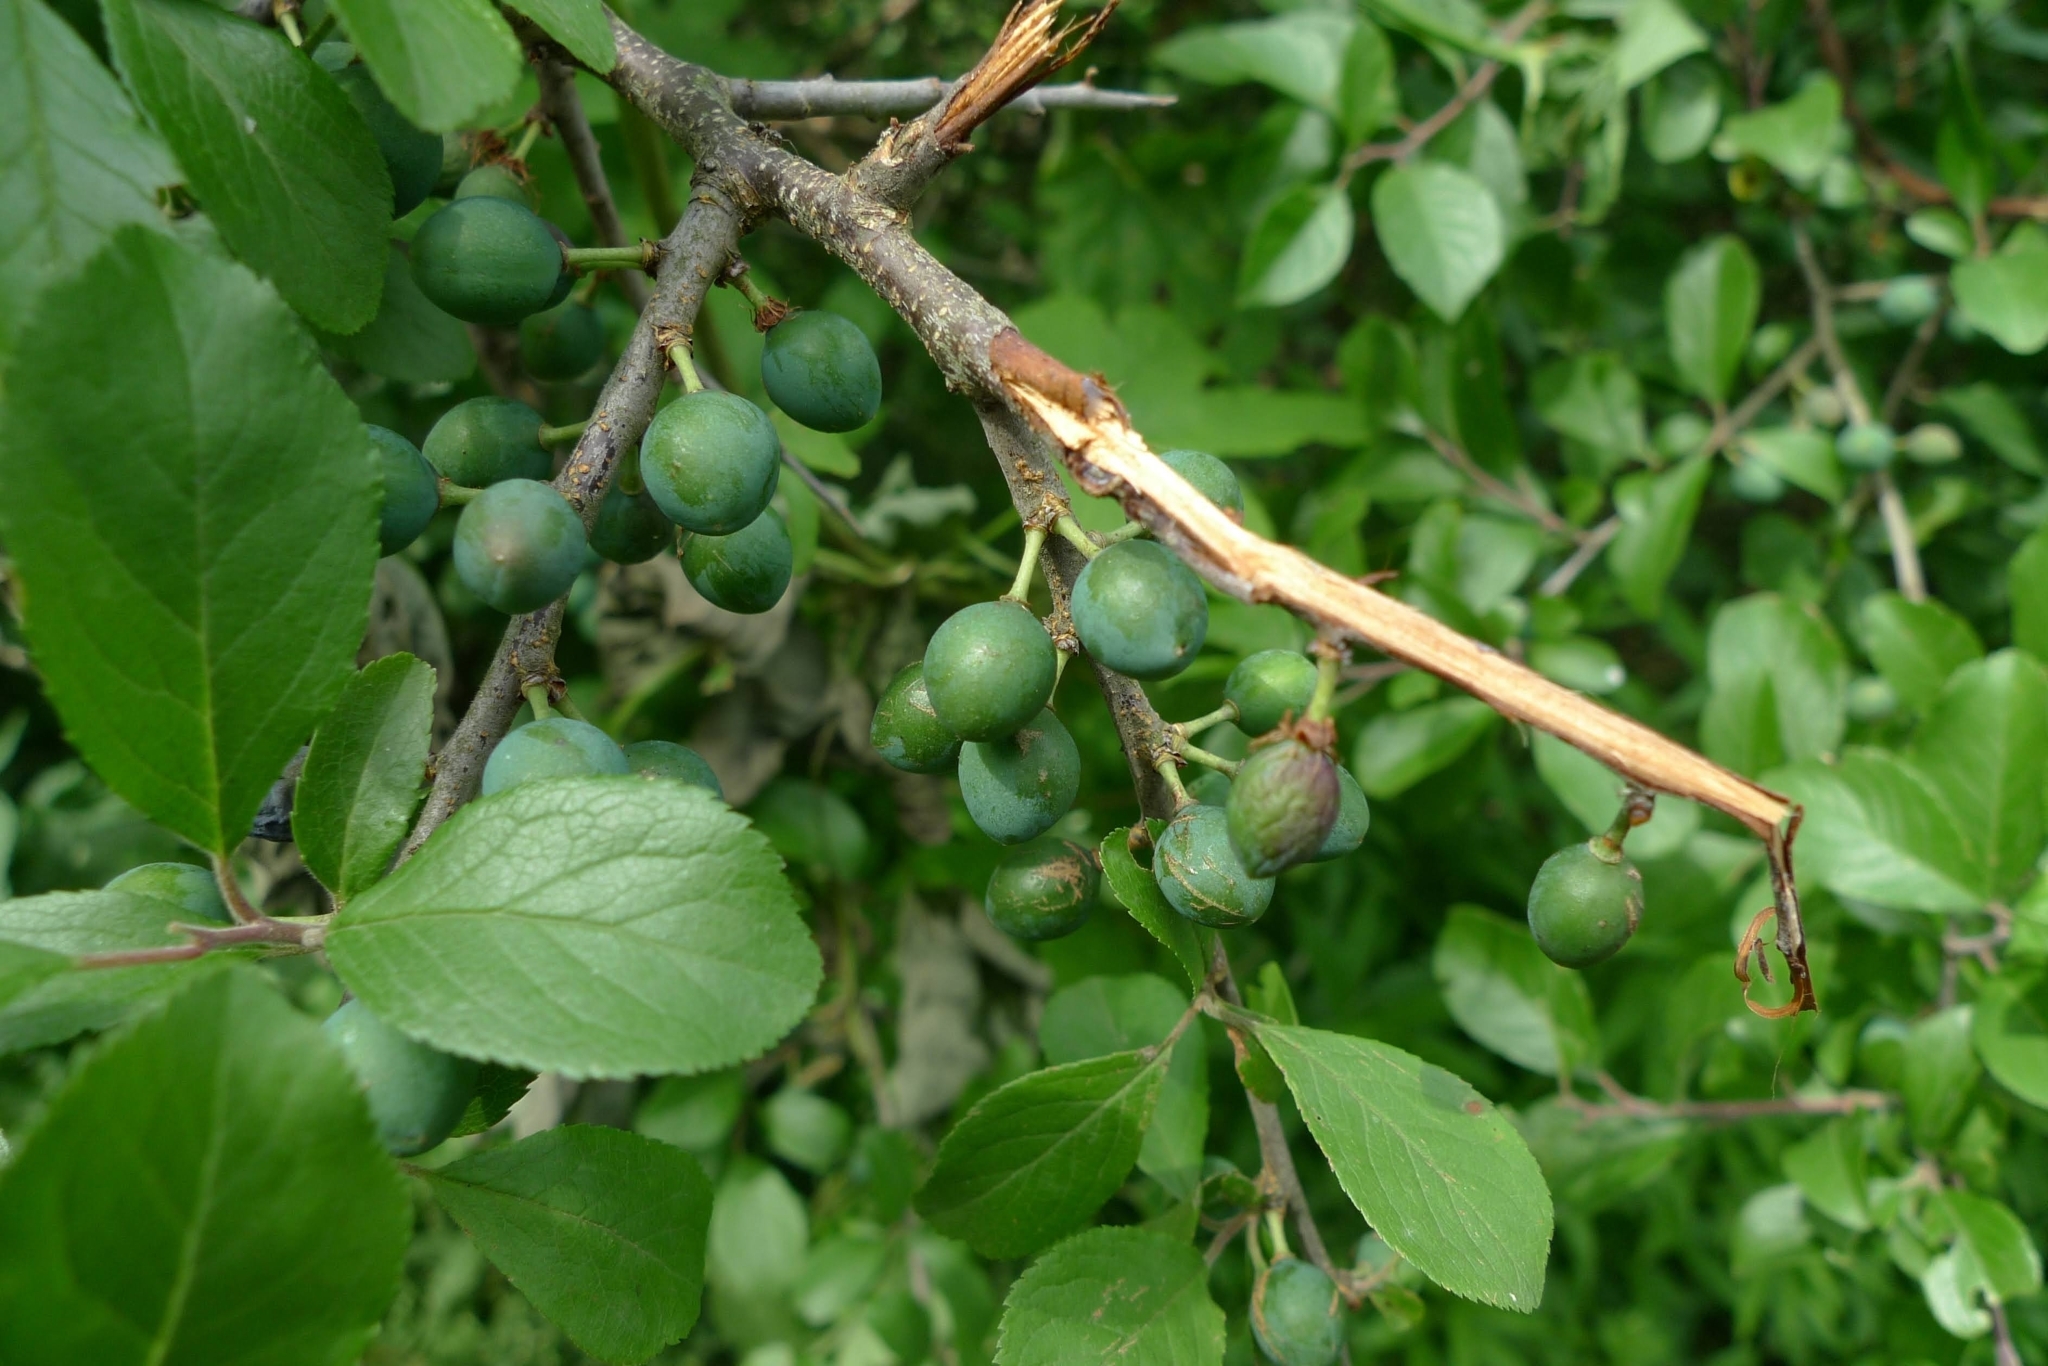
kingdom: Plantae
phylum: Tracheophyta
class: Magnoliopsida
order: Rosales
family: Rosaceae
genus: Prunus
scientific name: Prunus spinosa
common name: Blackthorn
